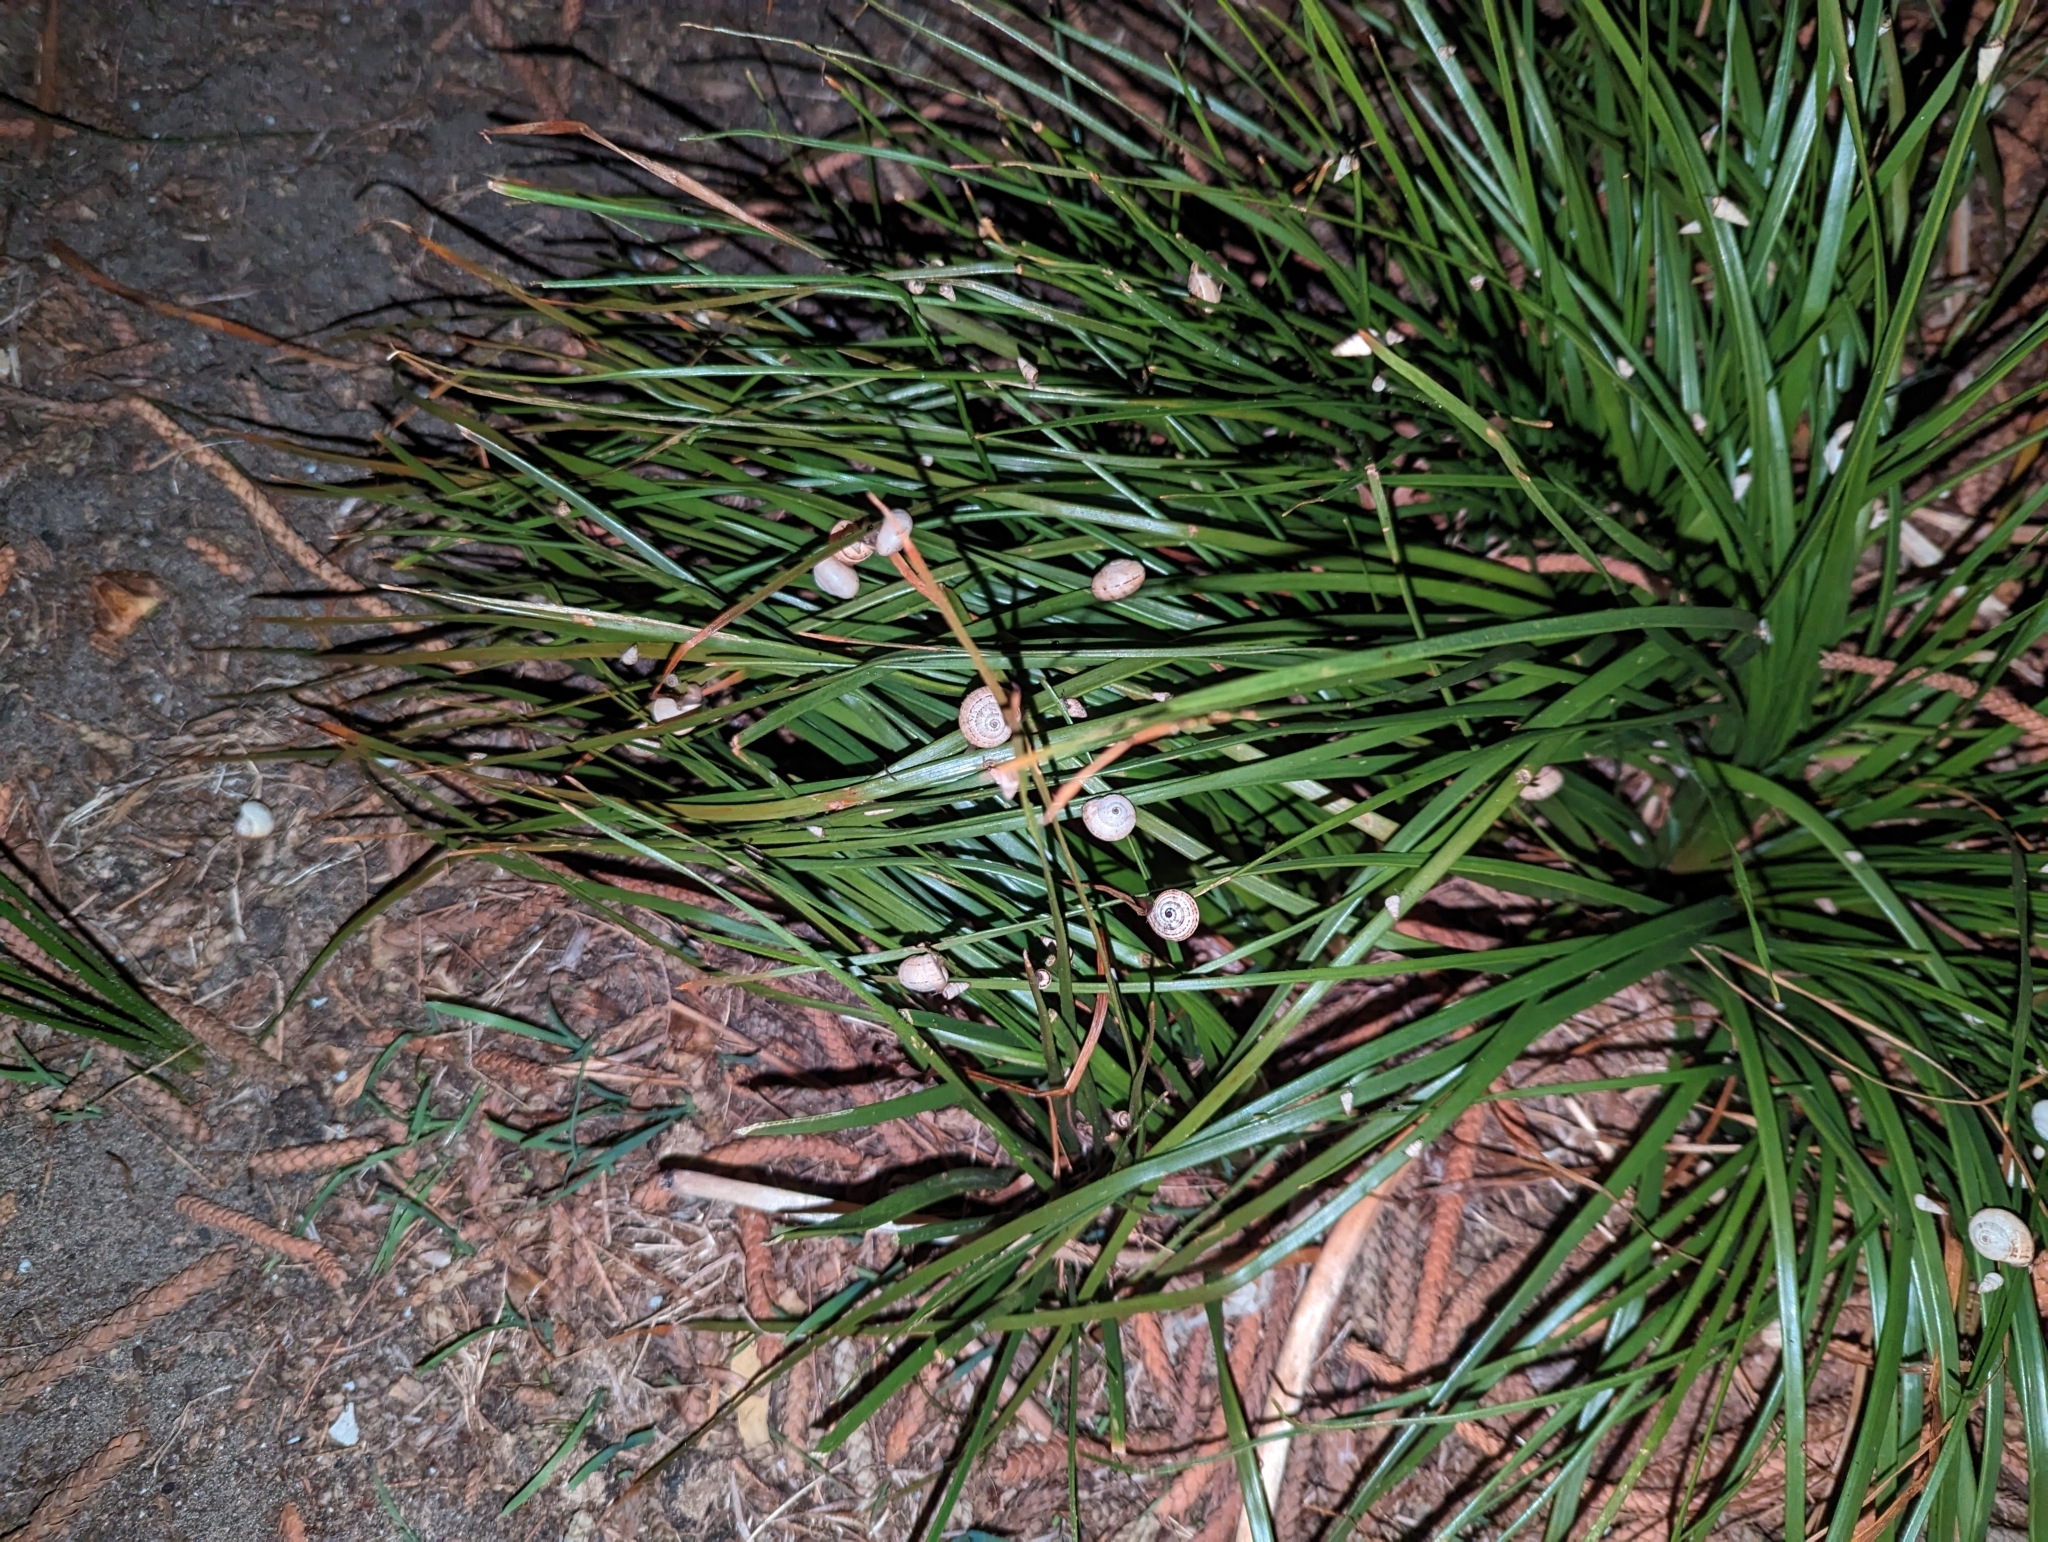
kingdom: Animalia
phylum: Mollusca
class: Gastropoda
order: Stylommatophora
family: Helicidae
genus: Theba
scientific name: Theba pisana
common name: White snail
